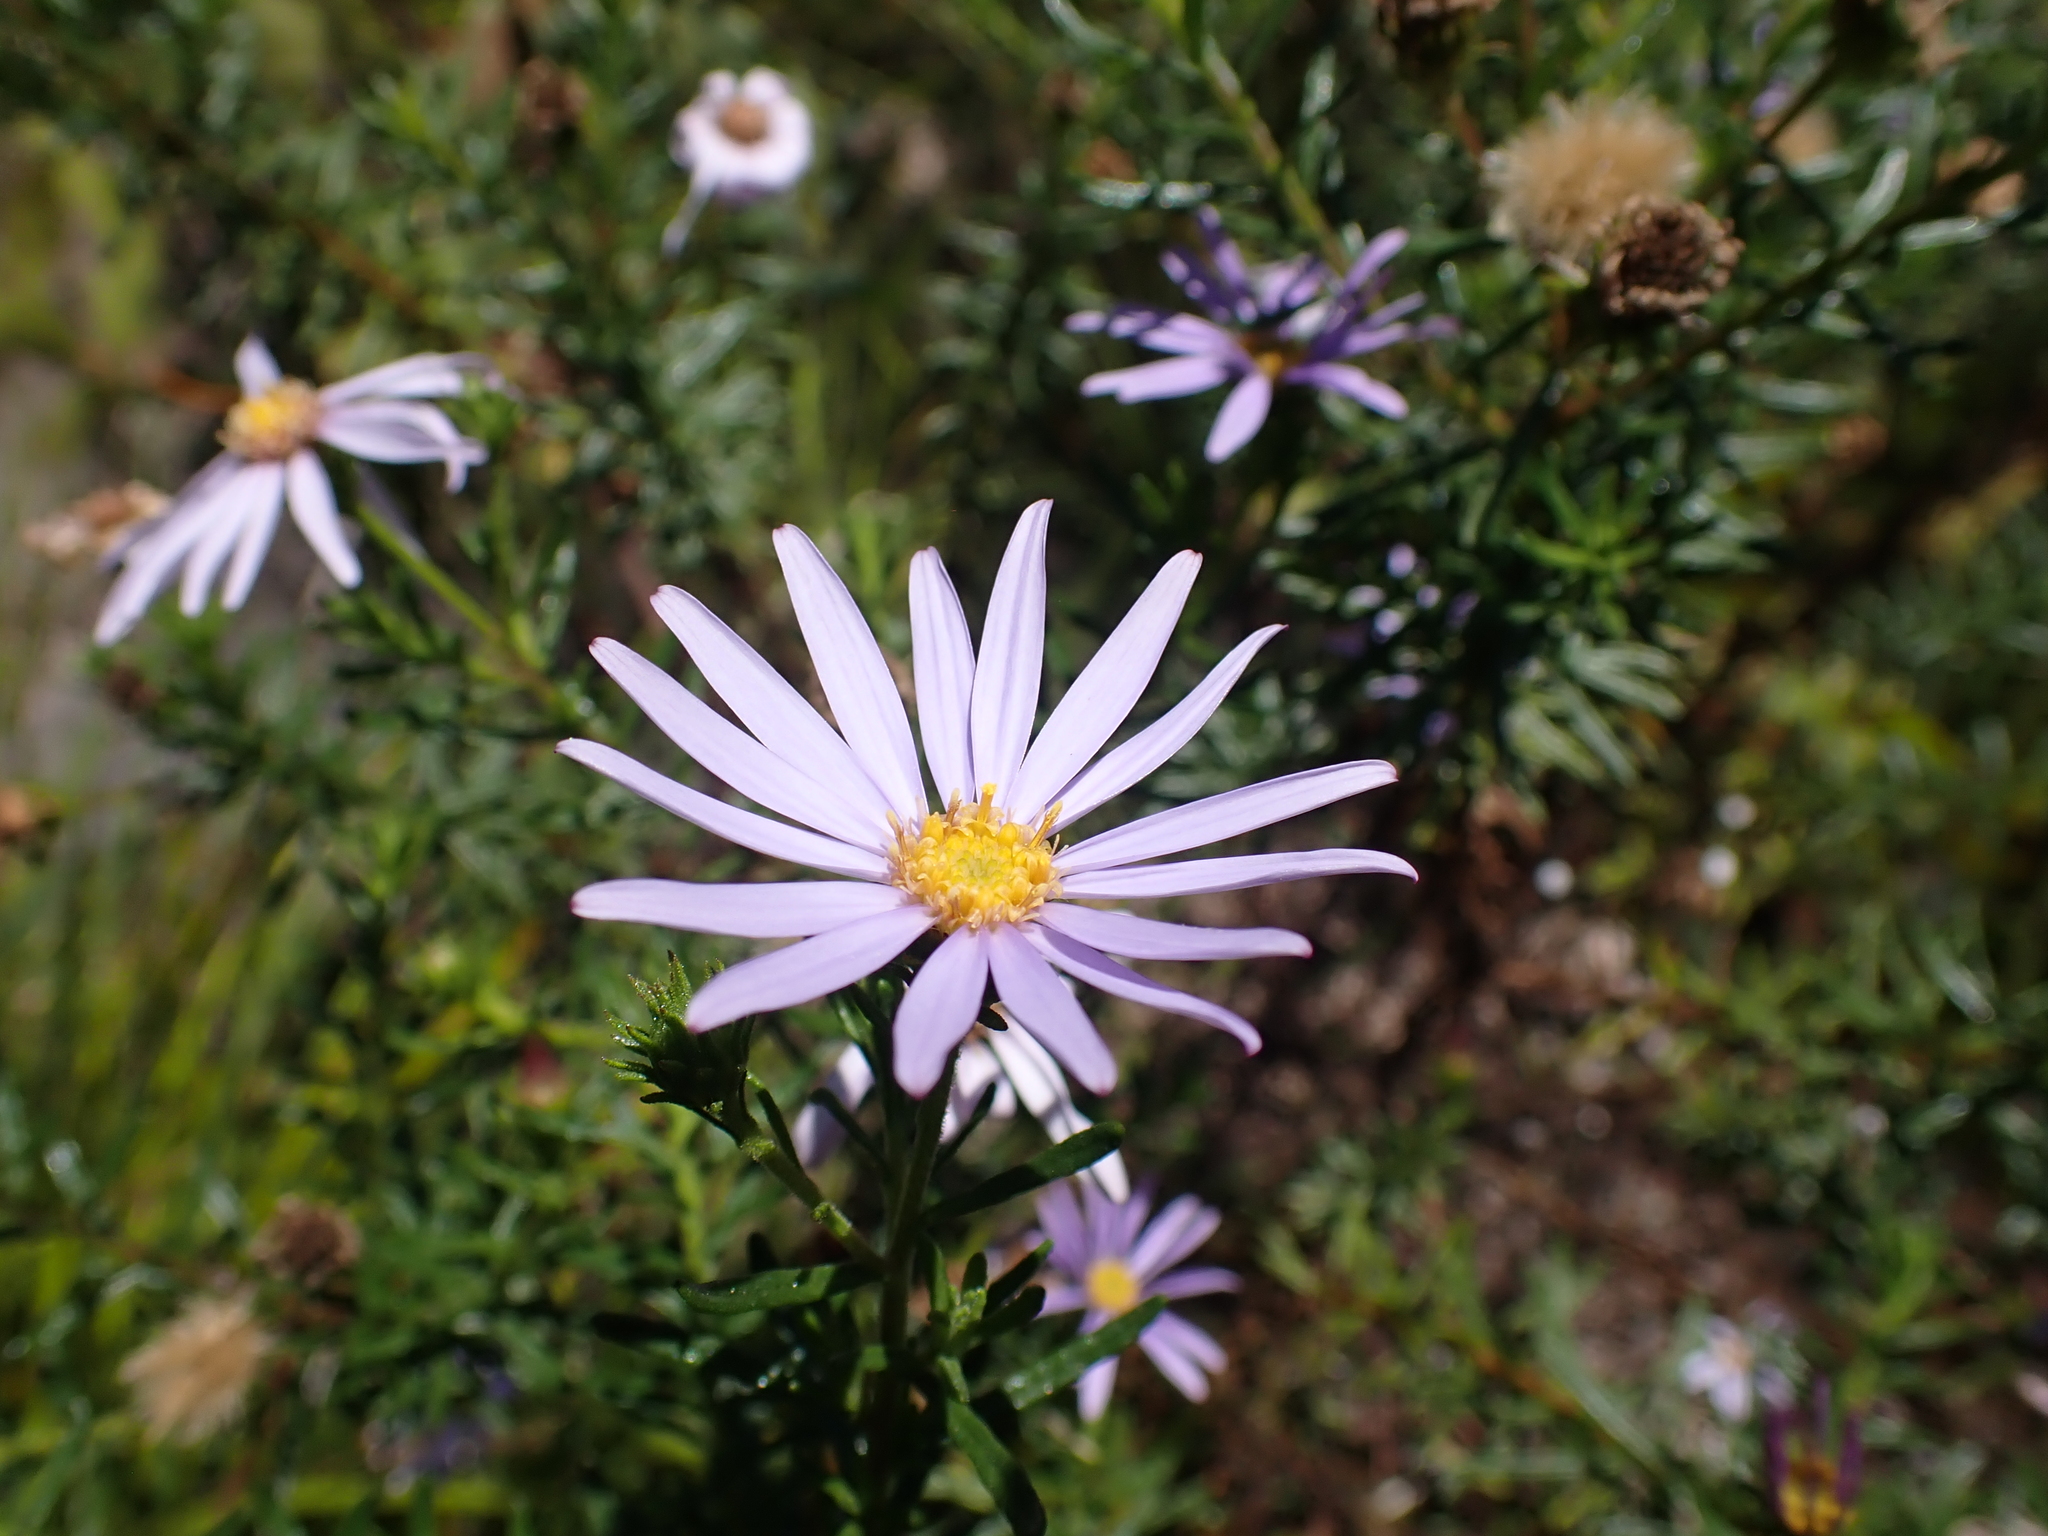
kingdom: Plantae
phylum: Tracheophyta
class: Magnoliopsida
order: Asterales
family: Asteraceae
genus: Olearia
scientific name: Olearia tenuifolia
